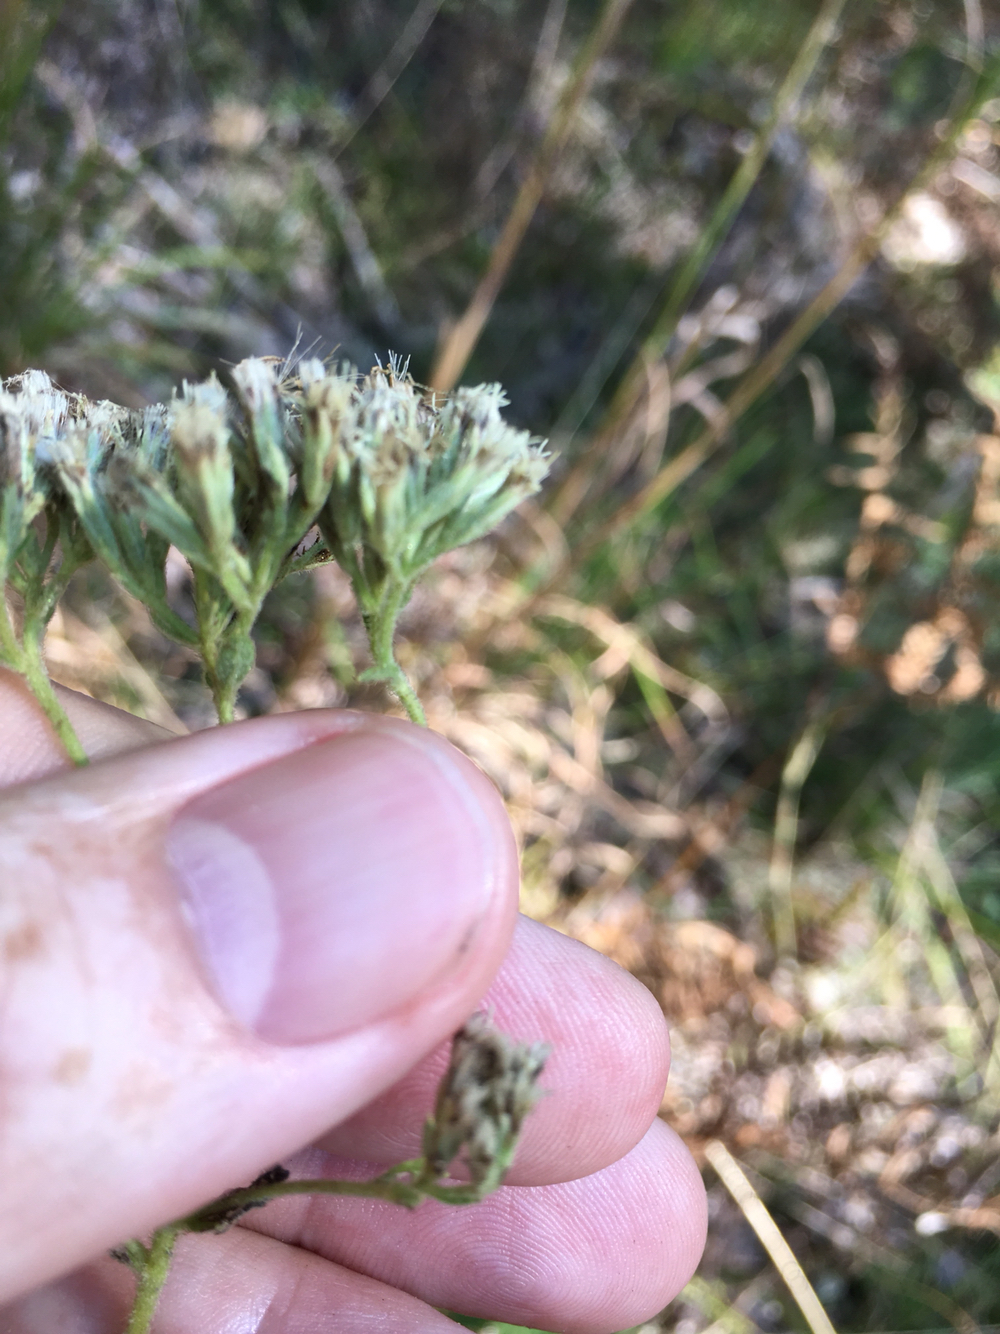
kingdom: Plantae
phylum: Tracheophyta
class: Magnoliopsida
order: Asterales
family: Asteraceae
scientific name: Asteraceae
